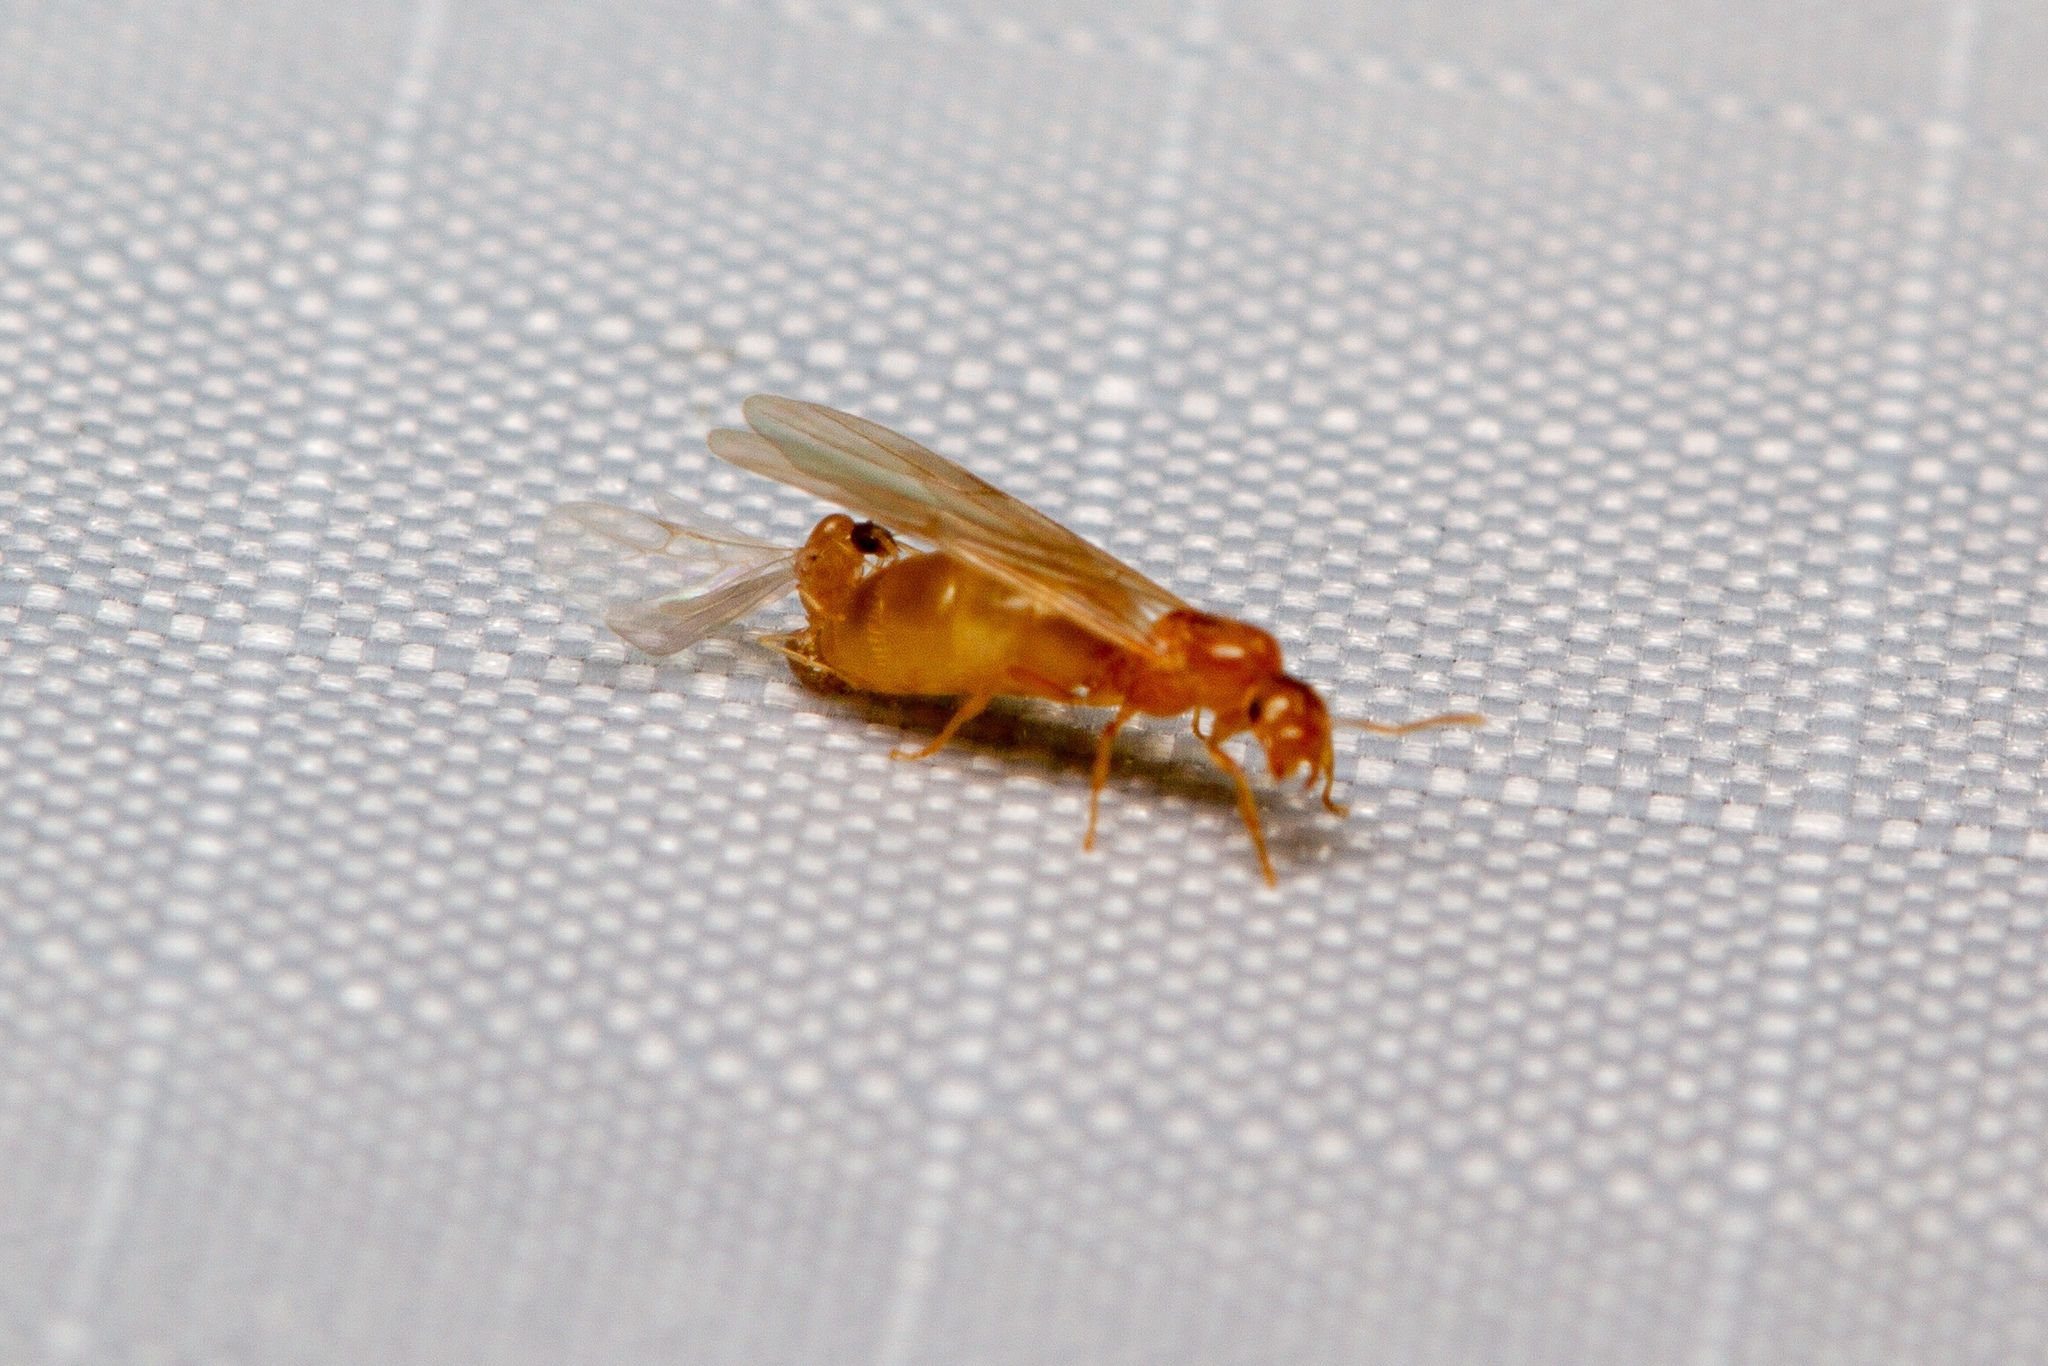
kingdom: Animalia
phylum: Arthropoda
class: Insecta
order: Hymenoptera
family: Formicidae
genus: Brachymyrmex
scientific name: Brachymyrmex depilis
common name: Hairless rover ant
